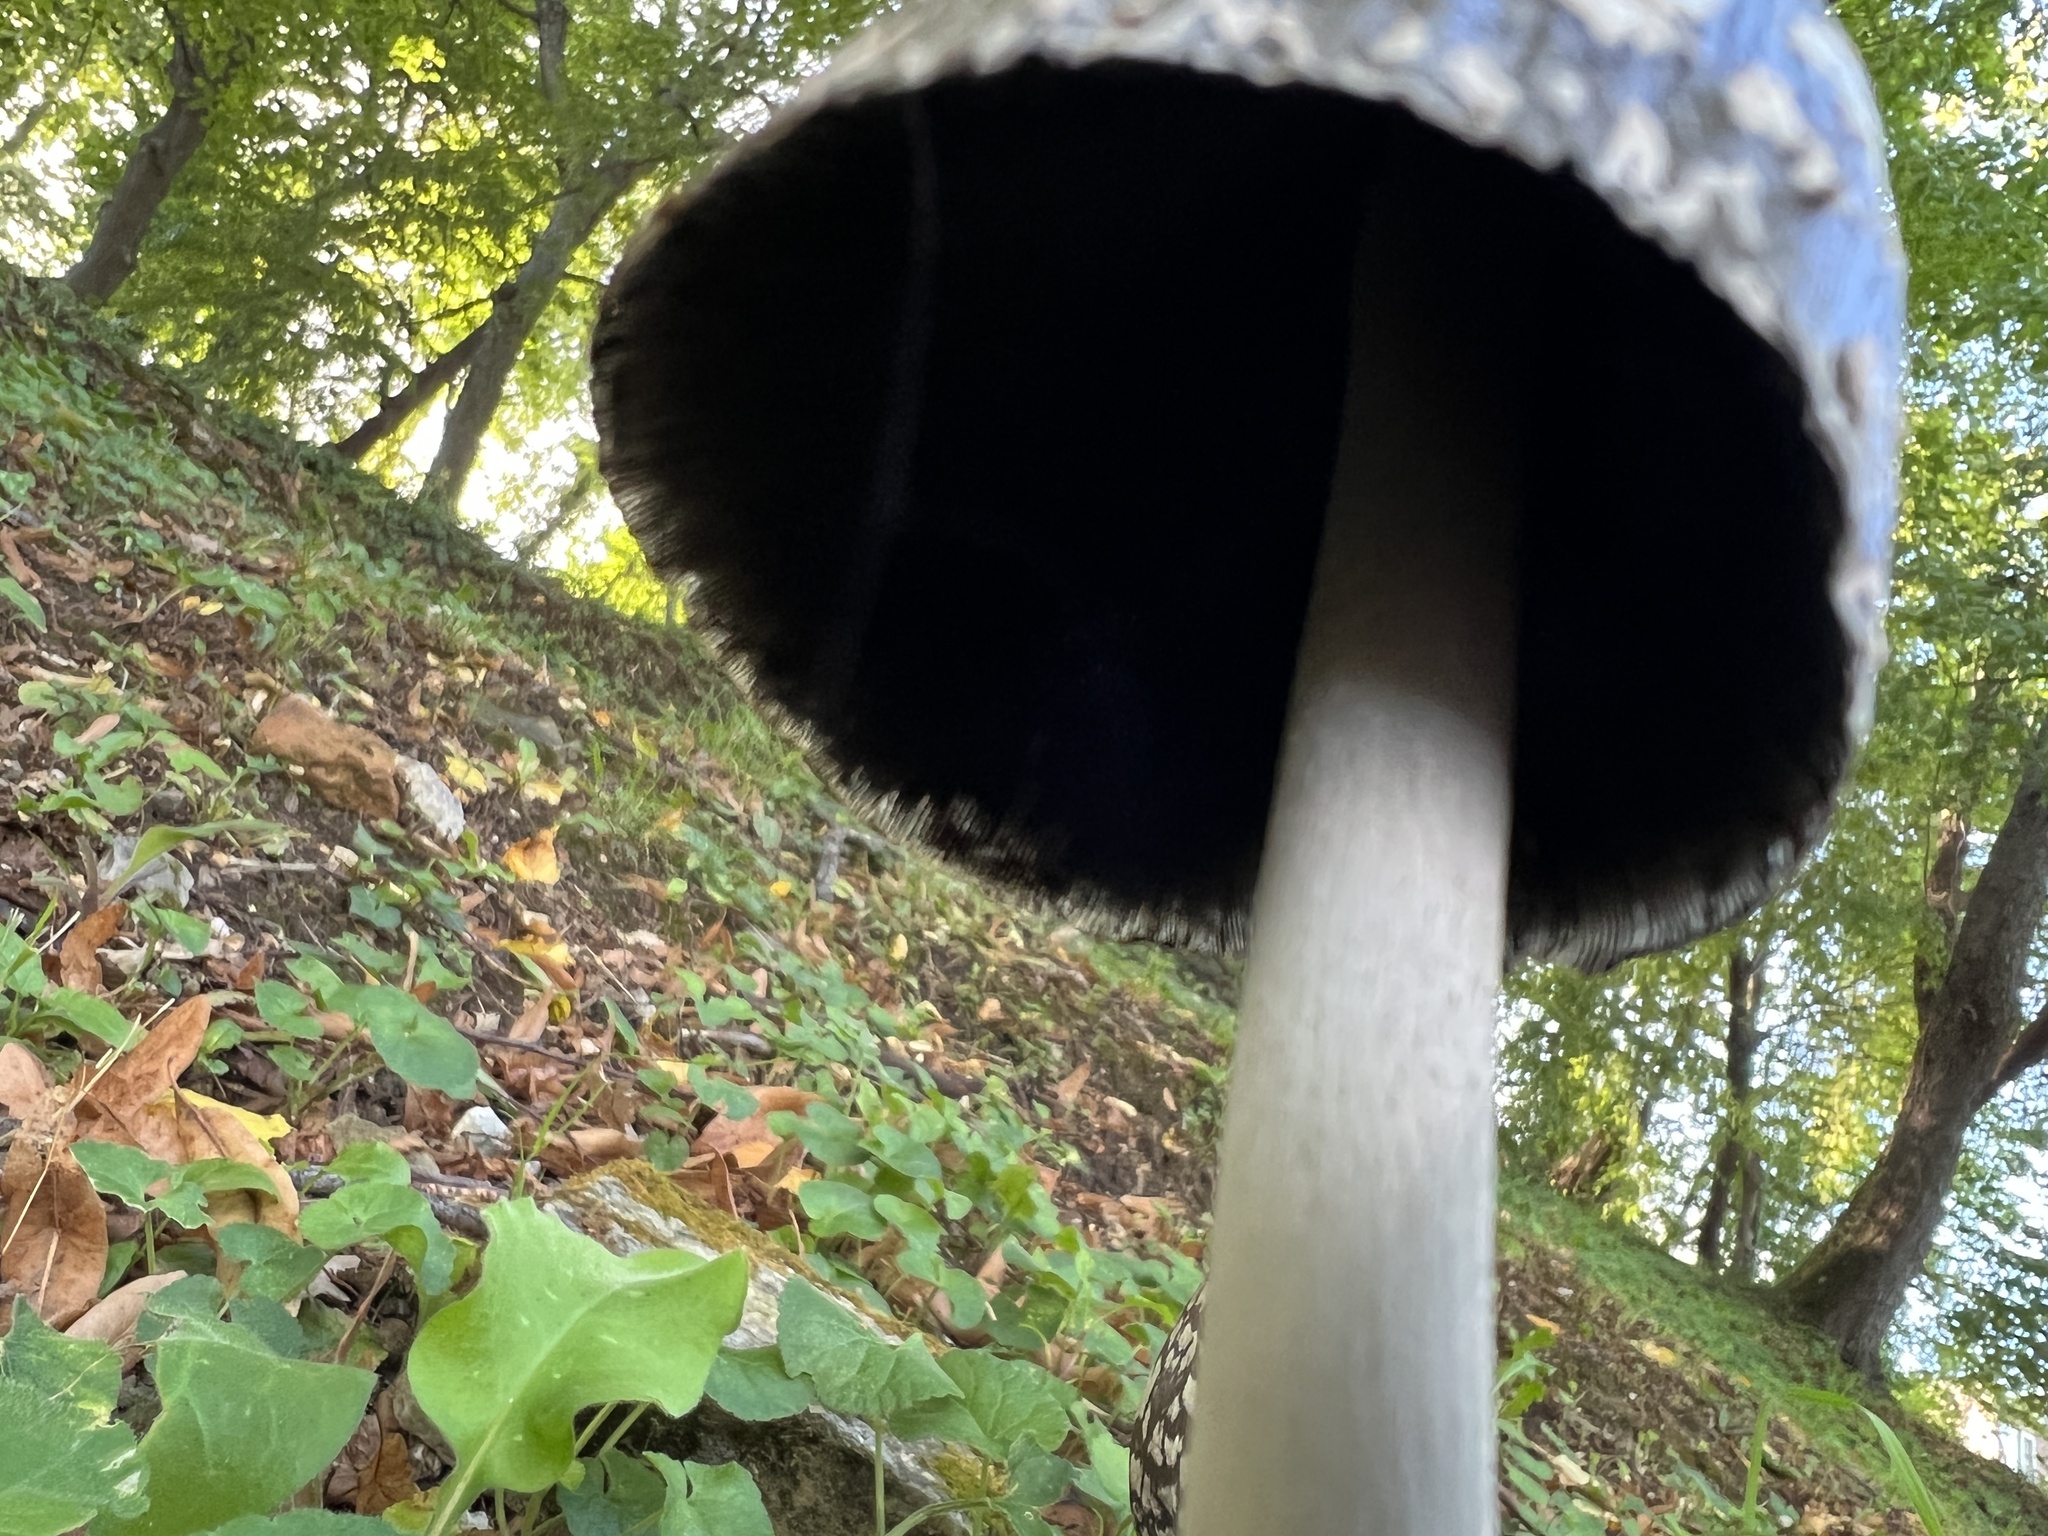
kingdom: Fungi
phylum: Basidiomycota
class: Agaricomycetes
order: Agaricales
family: Psathyrellaceae
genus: Coprinopsis
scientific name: Coprinopsis picacea
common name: Magpie inkcap
